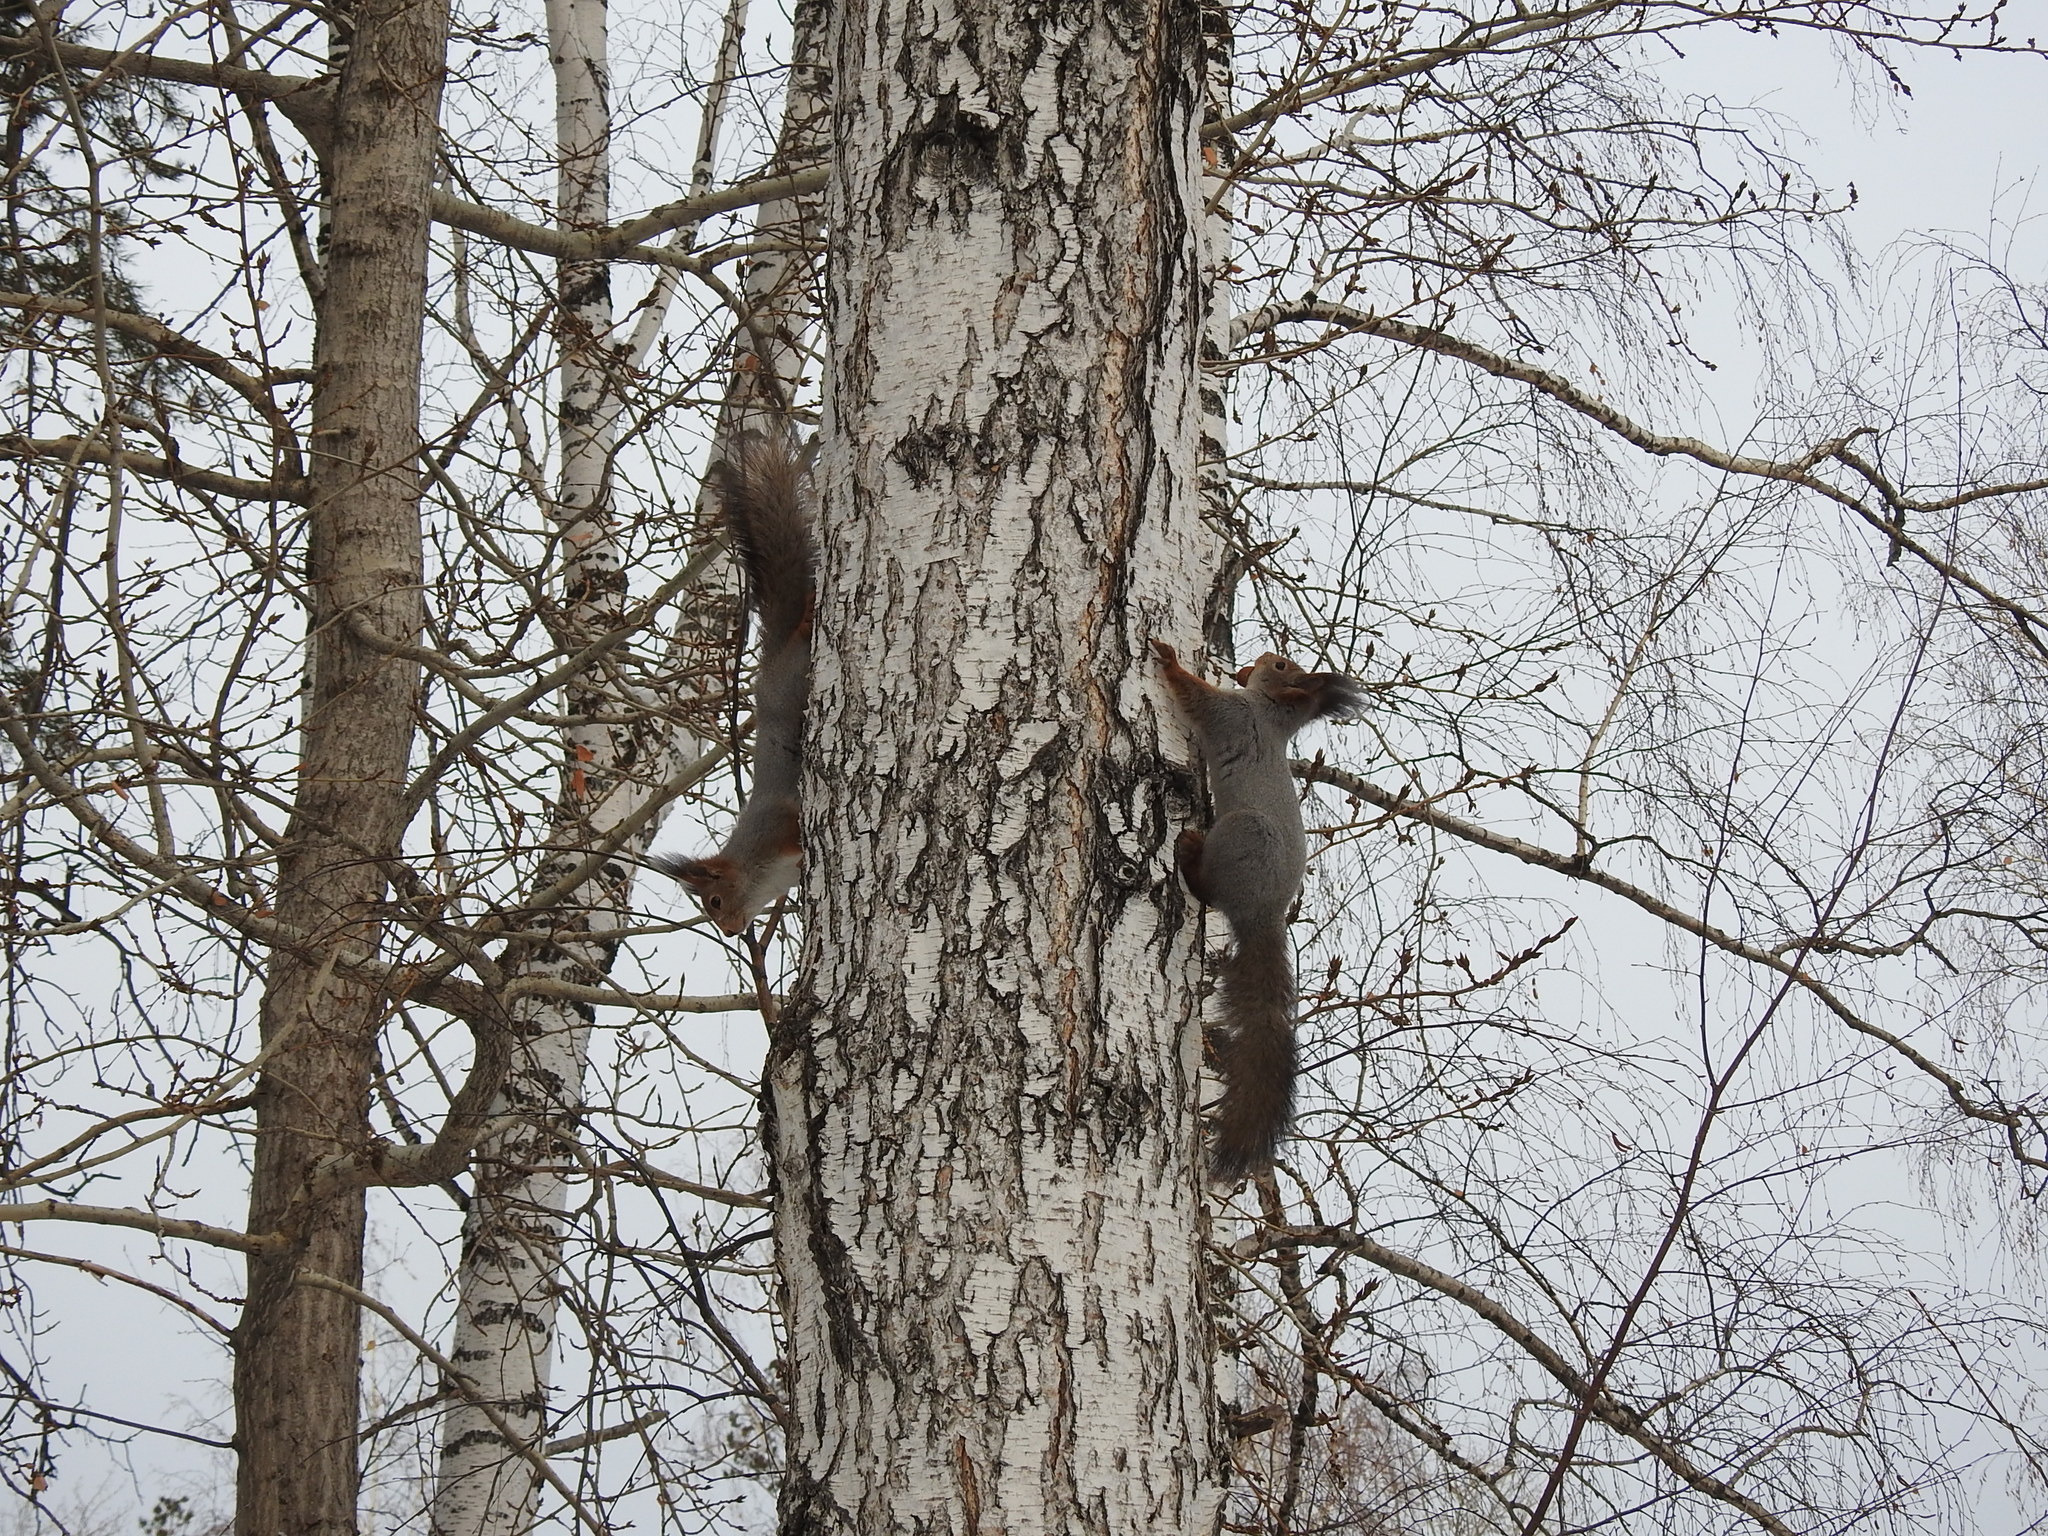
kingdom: Animalia
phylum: Chordata
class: Mammalia
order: Rodentia
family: Sciuridae
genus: Sciurus
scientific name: Sciurus vulgaris
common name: Eurasian red squirrel
